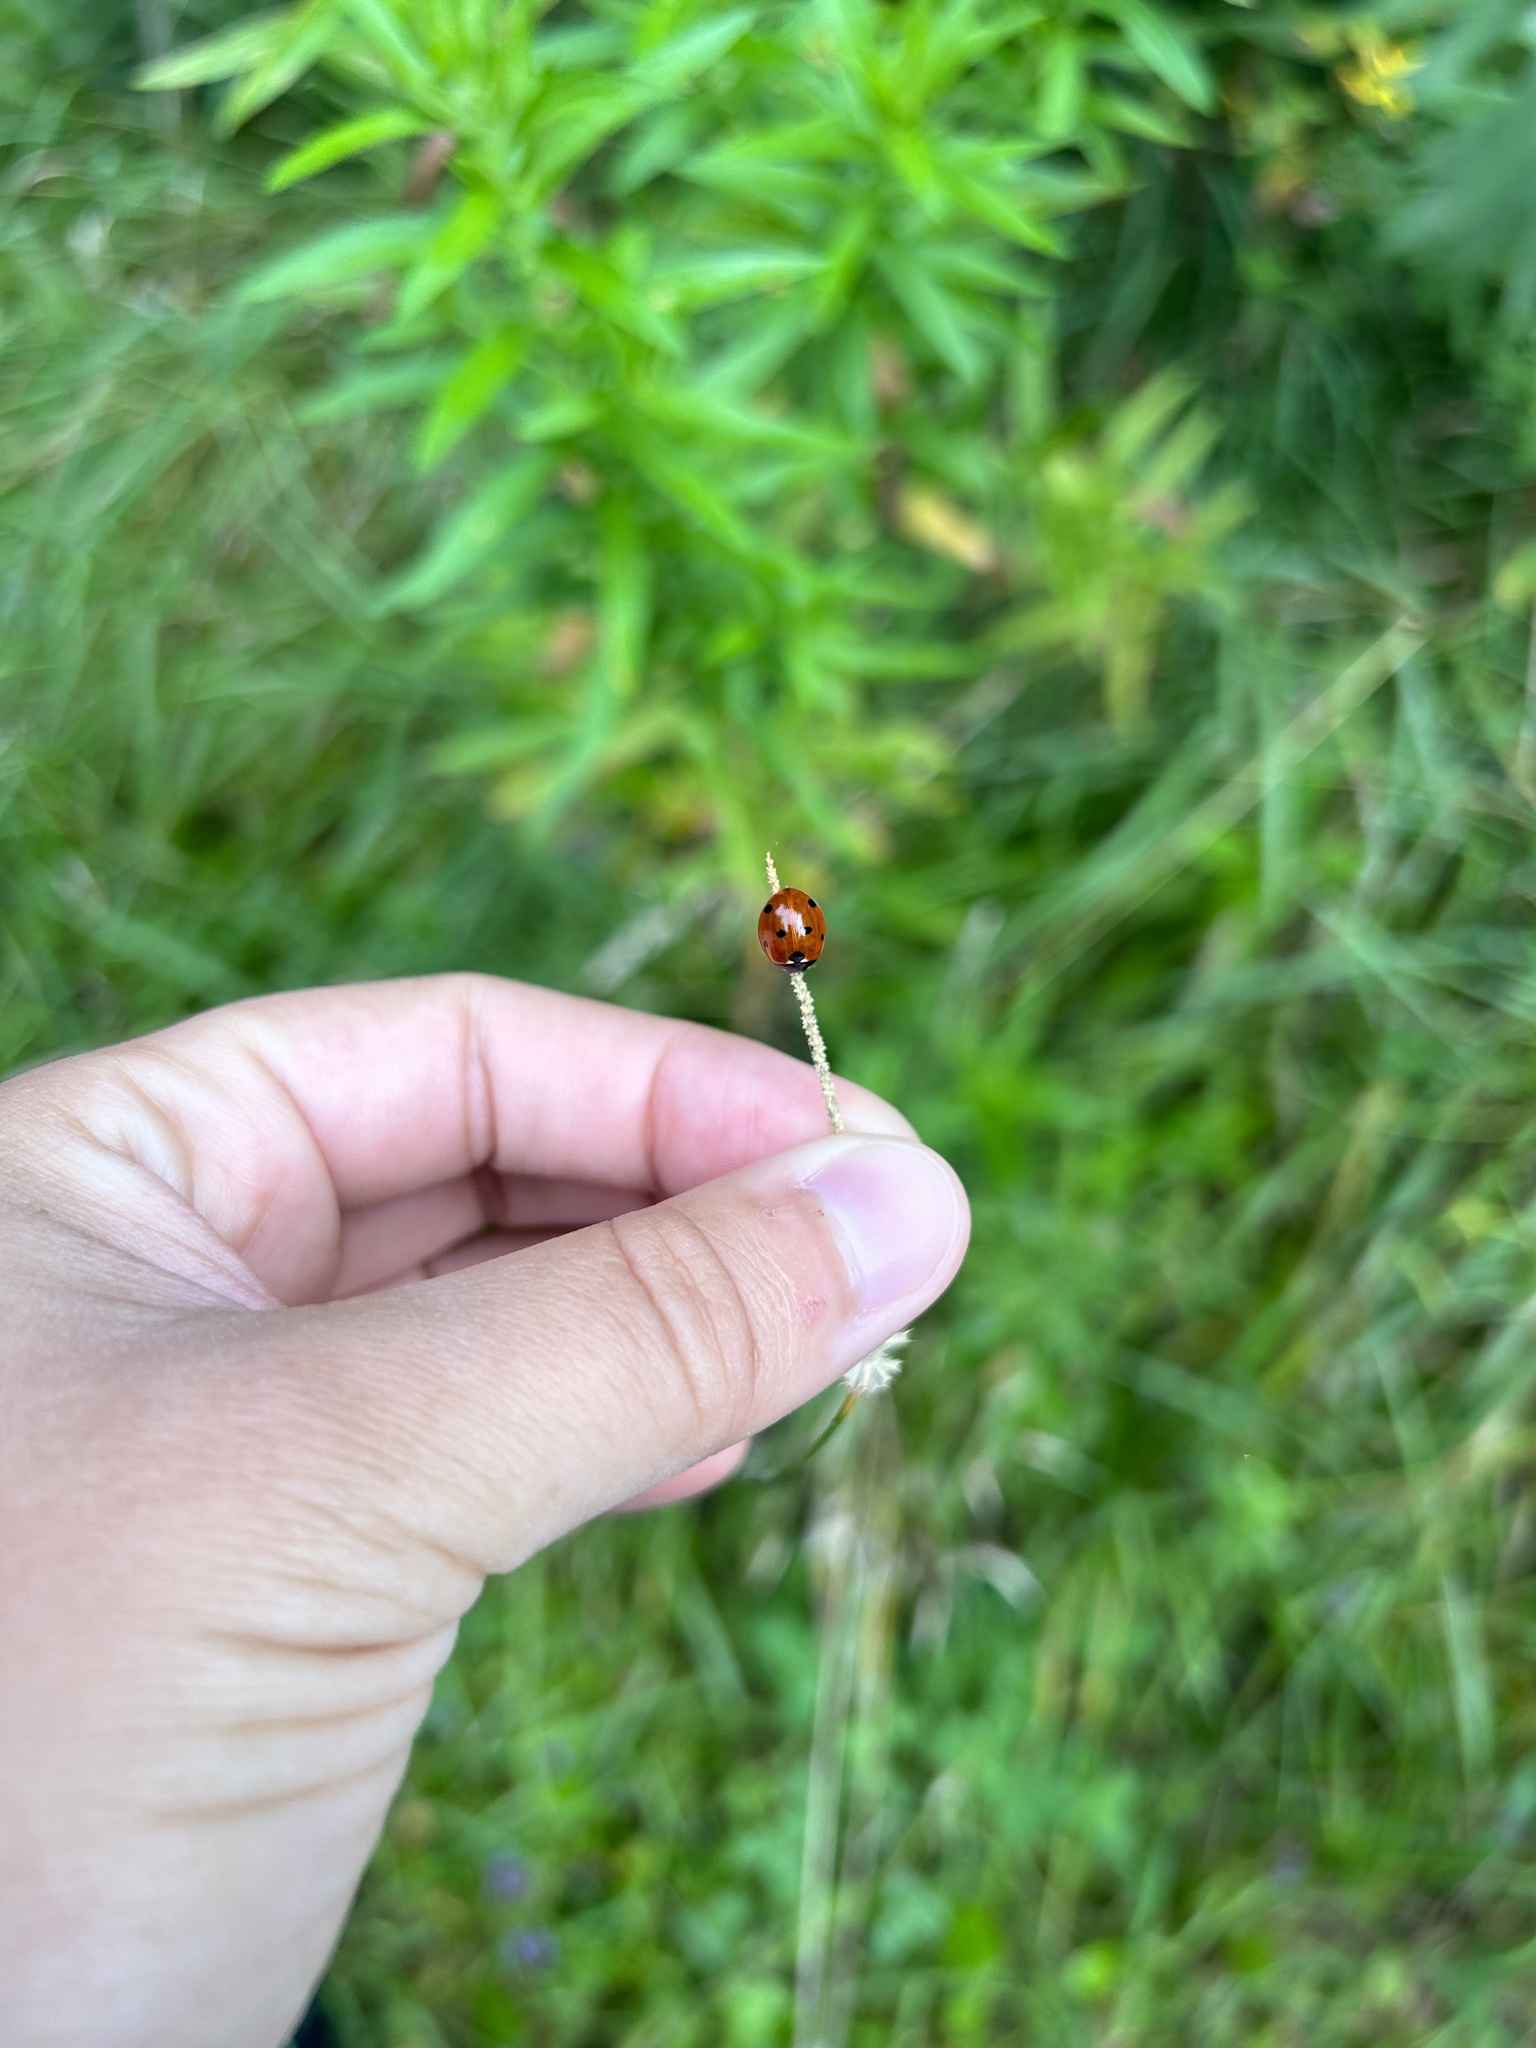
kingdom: Animalia
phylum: Arthropoda
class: Insecta
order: Coleoptera
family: Coccinellidae
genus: Coccinella
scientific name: Coccinella septempunctata
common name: Sevenspotted lady beetle
